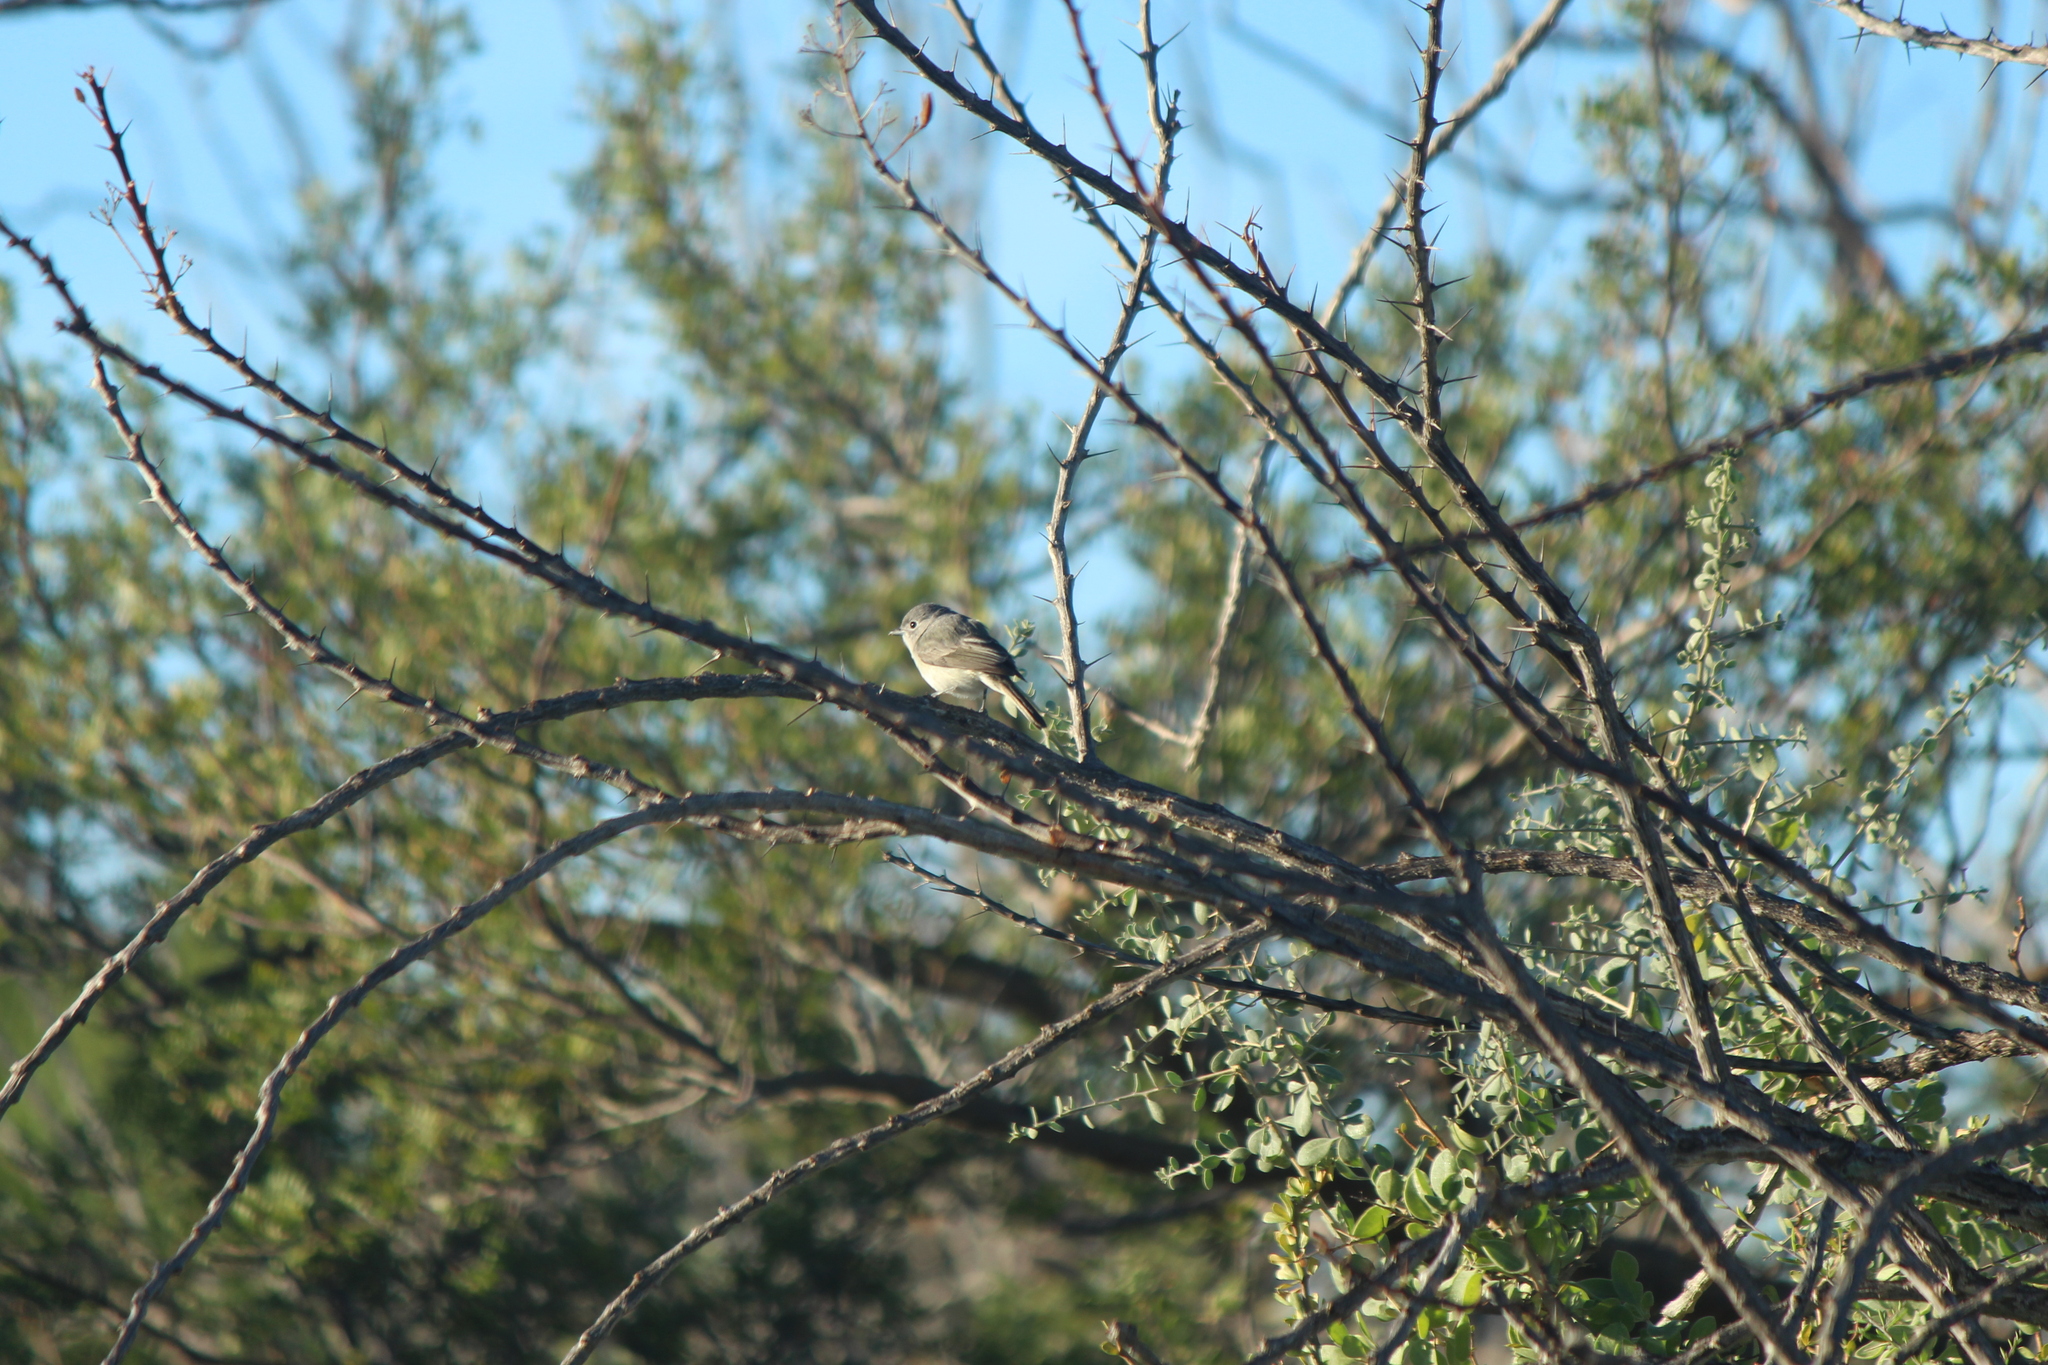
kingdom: Animalia
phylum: Chordata
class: Aves
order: Passeriformes
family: Vireonidae
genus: Vireo
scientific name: Vireo vicinior
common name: Gray vireo
